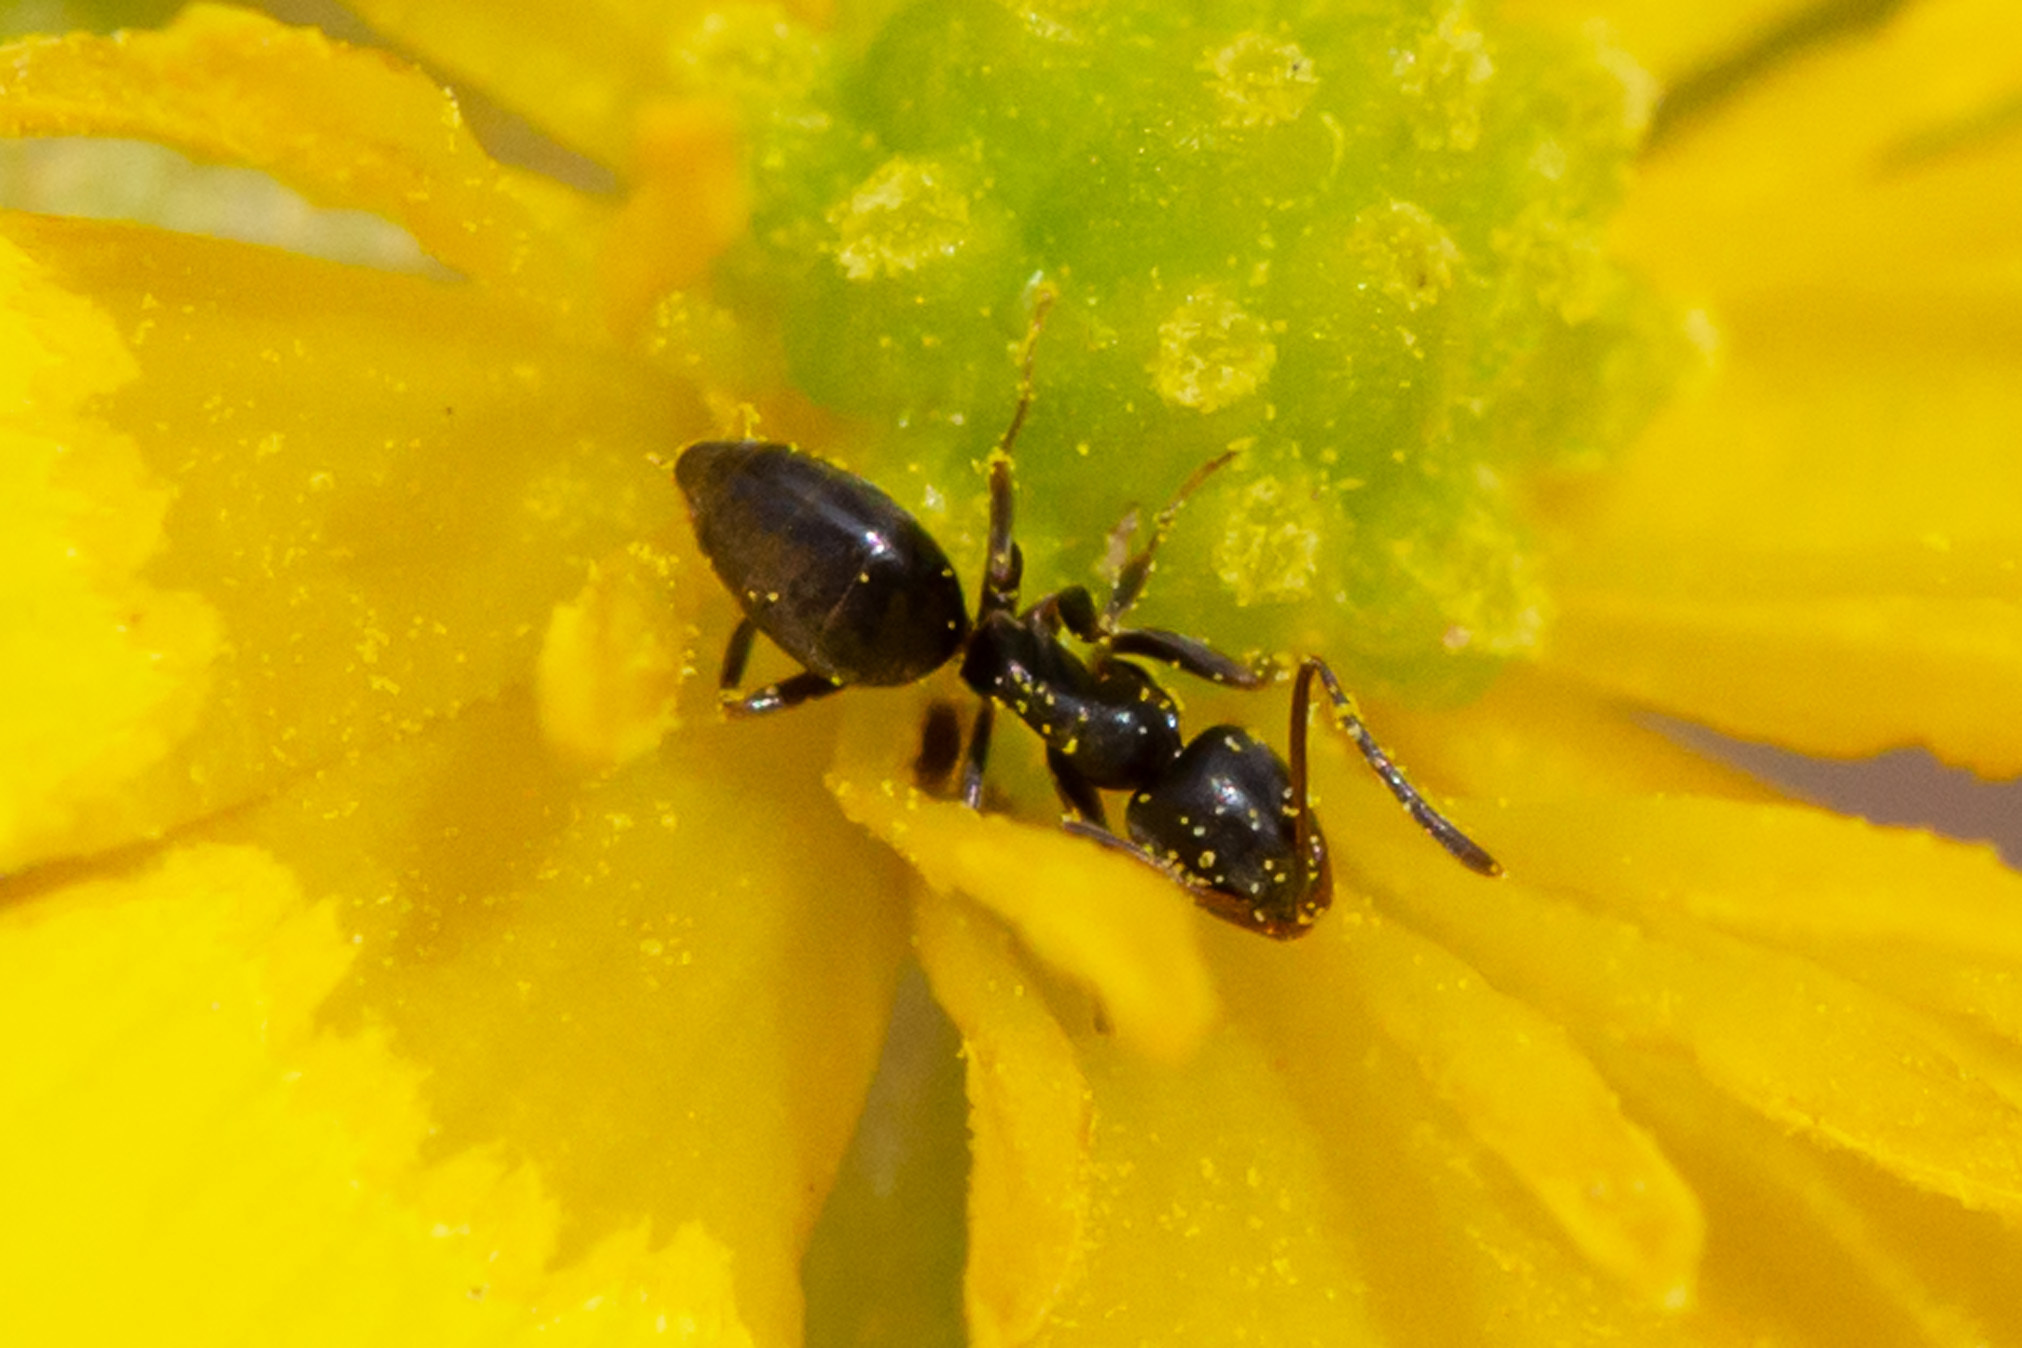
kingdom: Animalia
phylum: Arthropoda
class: Insecta
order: Hymenoptera
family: Formicidae
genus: Tapinoma
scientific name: Tapinoma sessile
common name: Odorous house ant
